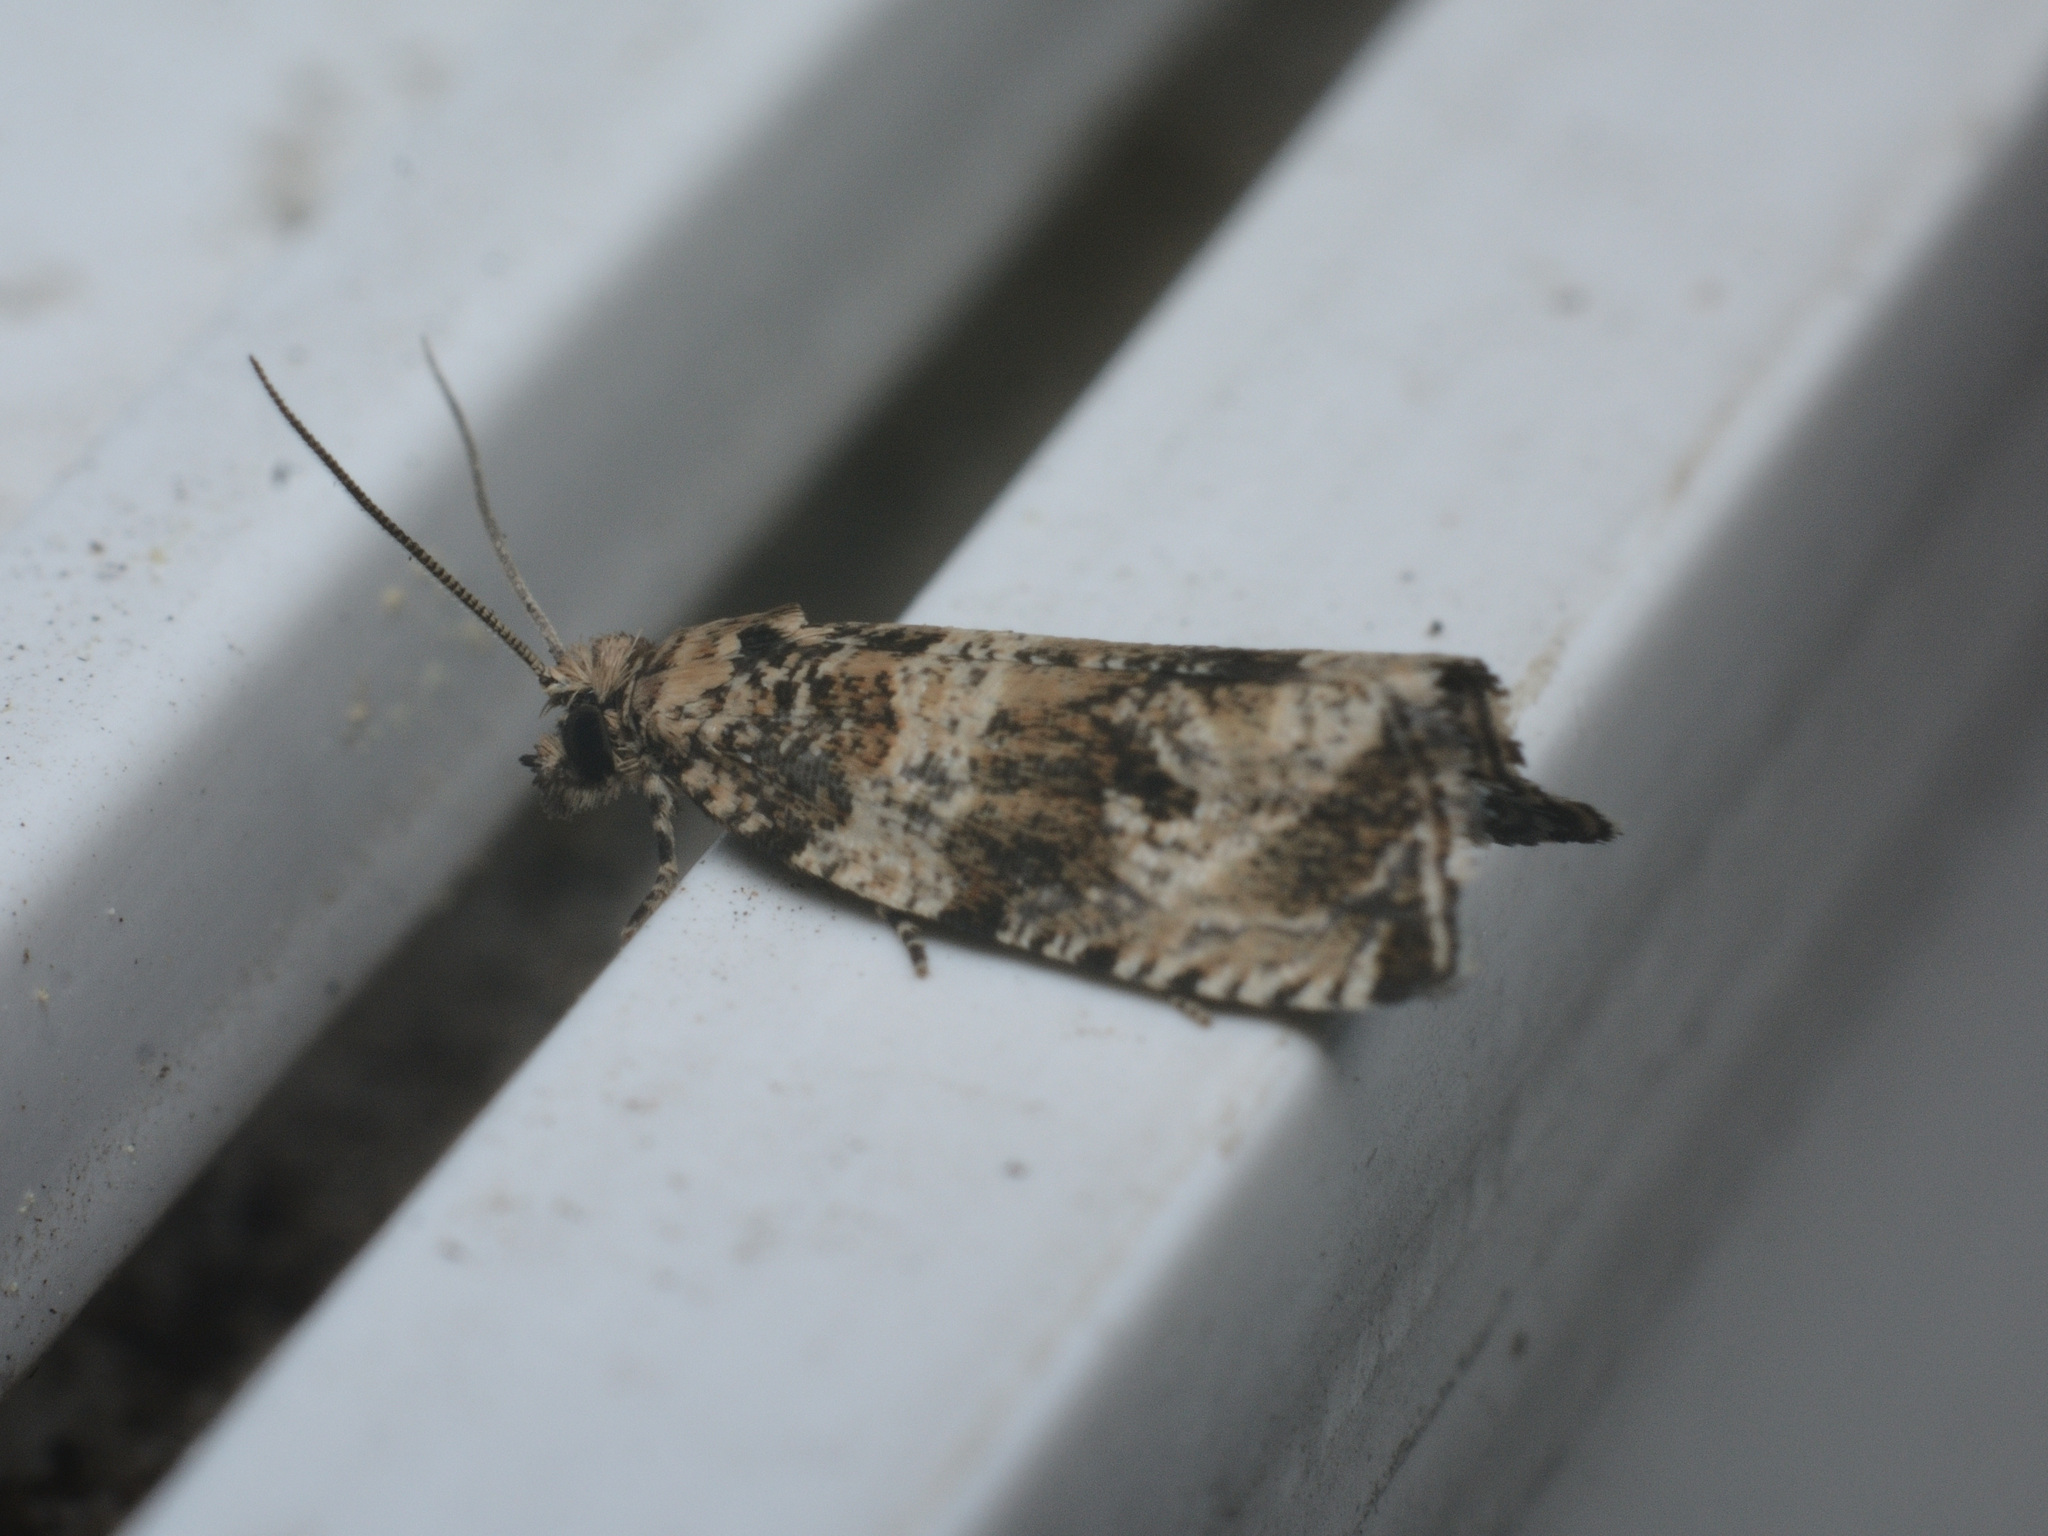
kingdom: Animalia
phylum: Arthropoda
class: Insecta
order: Lepidoptera
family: Tortricidae
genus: Celypha
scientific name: Celypha cespitana
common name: Thyme marble
